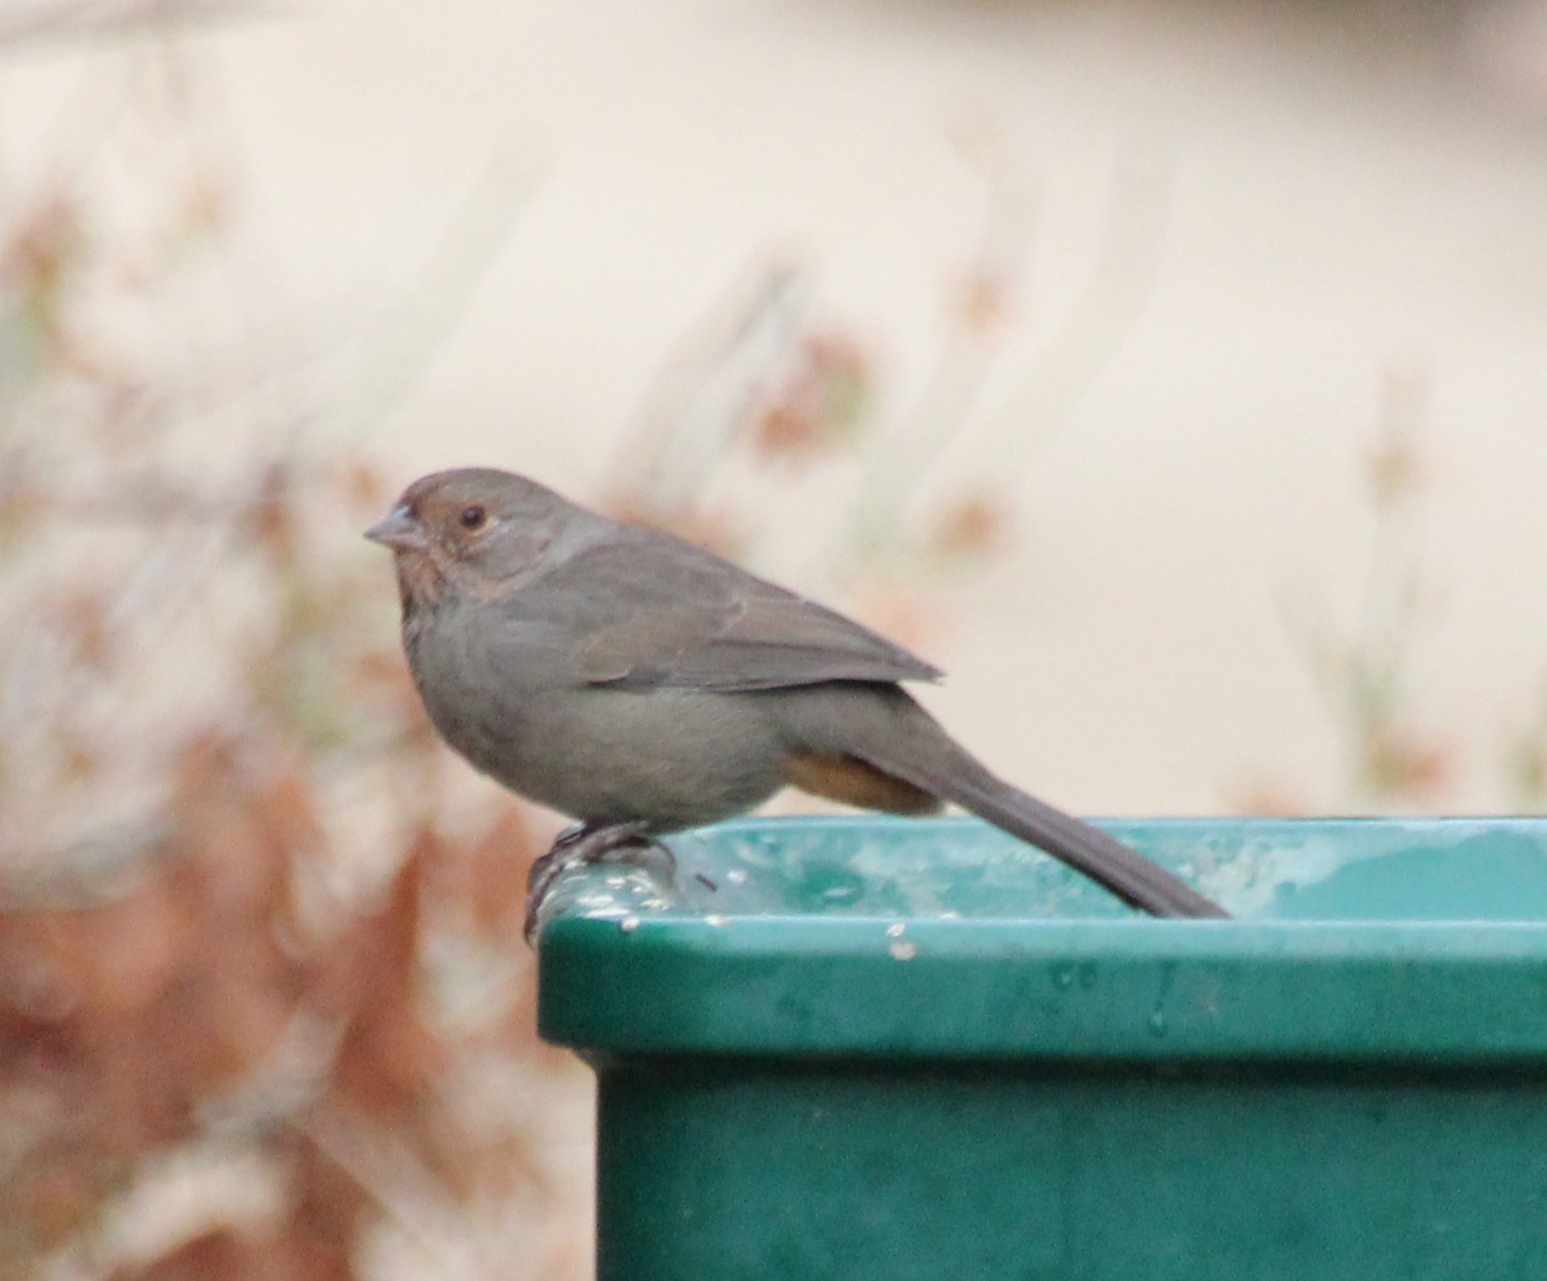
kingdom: Animalia
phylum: Chordata
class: Aves
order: Passeriformes
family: Passerellidae
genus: Melozone
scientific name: Melozone crissalis
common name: California towhee
